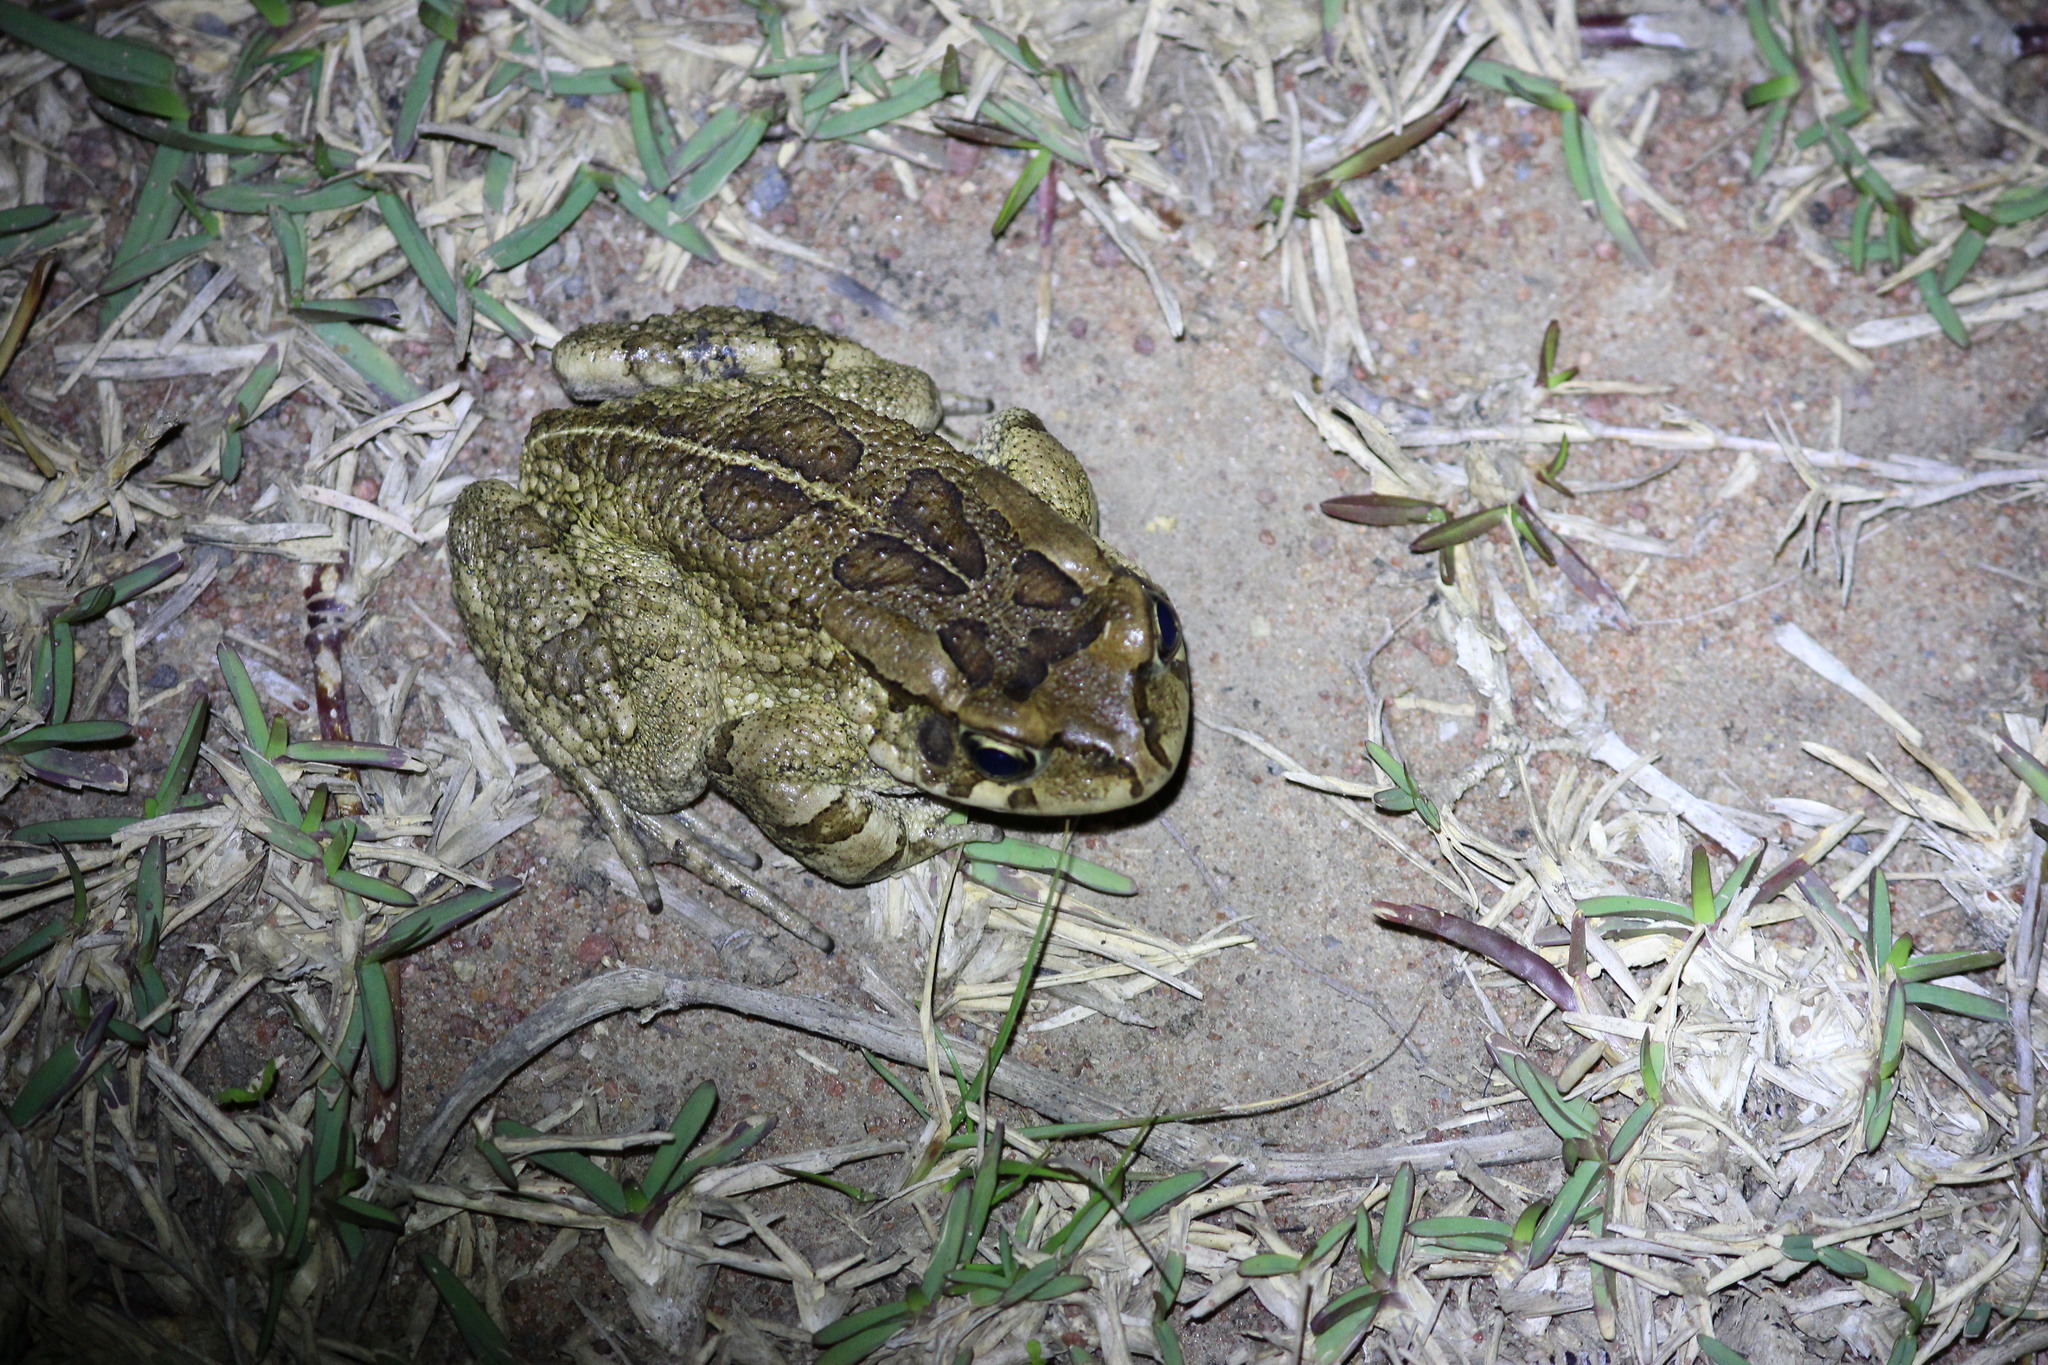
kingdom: Animalia
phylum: Chordata
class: Amphibia
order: Anura
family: Bufonidae
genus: Sclerophrys
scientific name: Sclerophrys capensis
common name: Ranger’s toad
